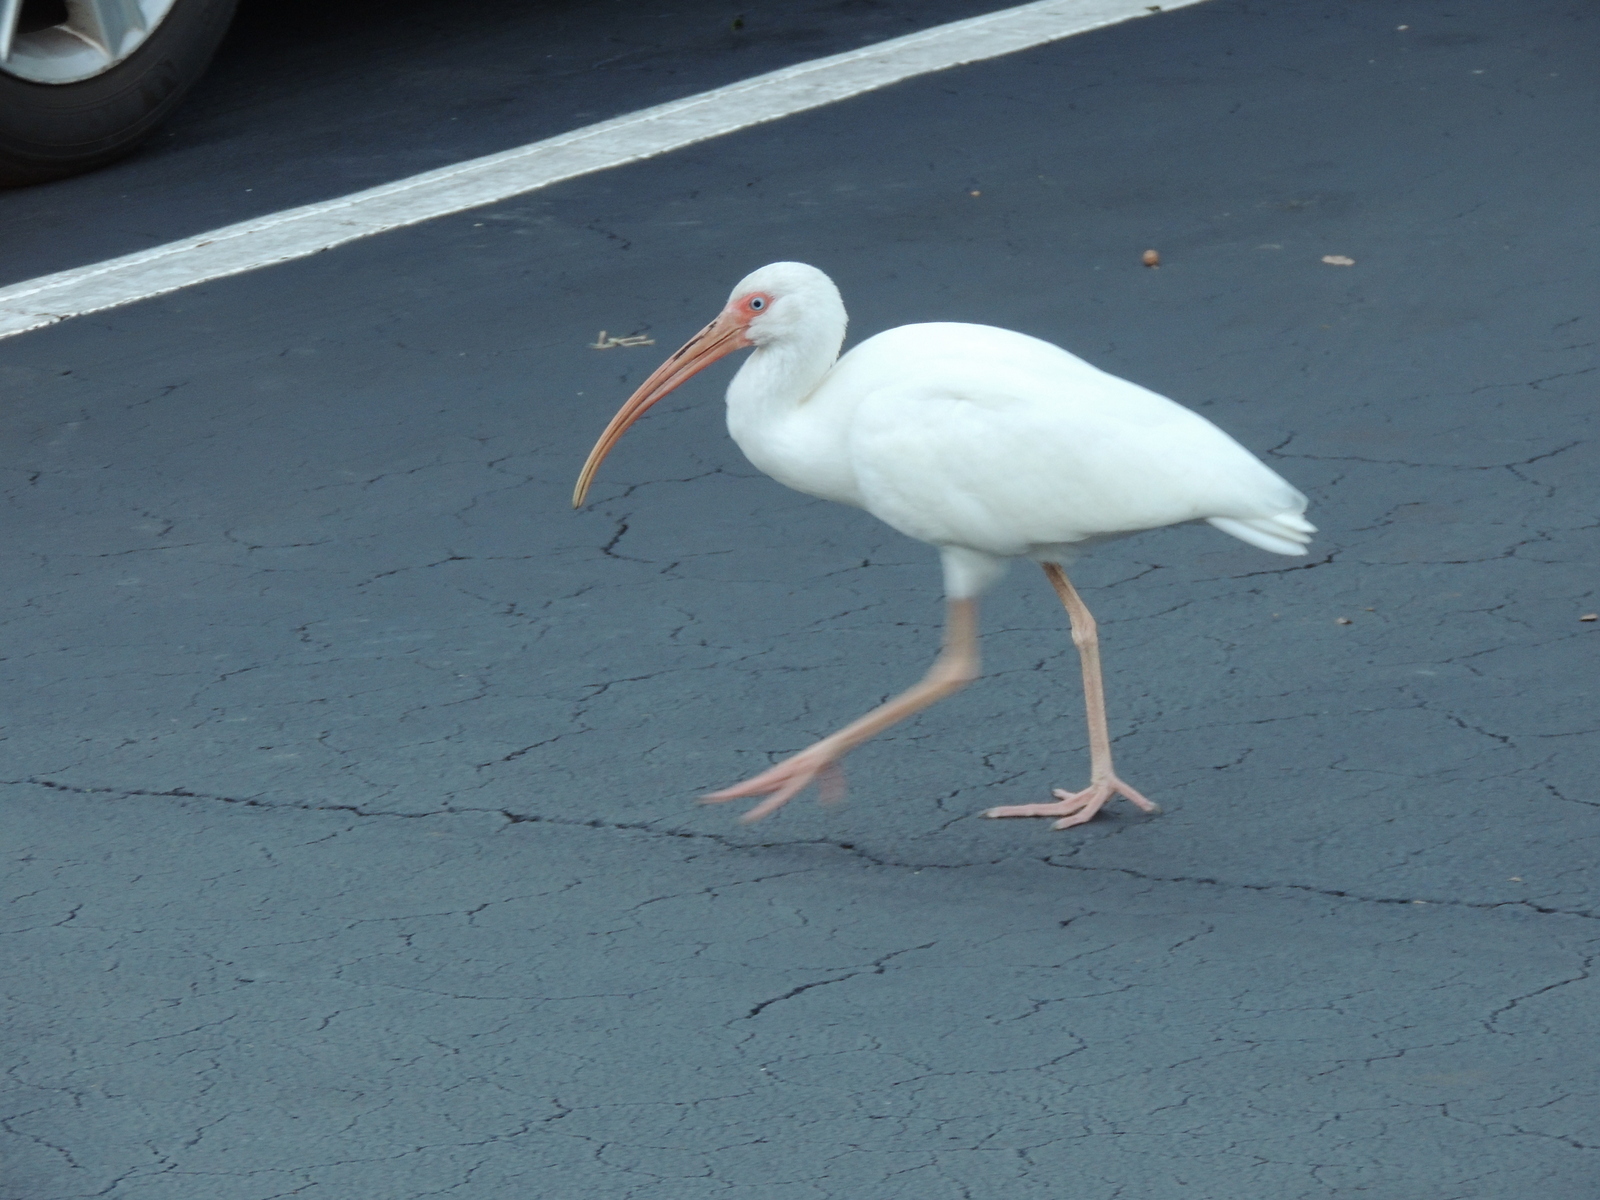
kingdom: Animalia
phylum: Chordata
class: Aves
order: Pelecaniformes
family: Threskiornithidae
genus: Eudocimus
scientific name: Eudocimus albus
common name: White ibis
